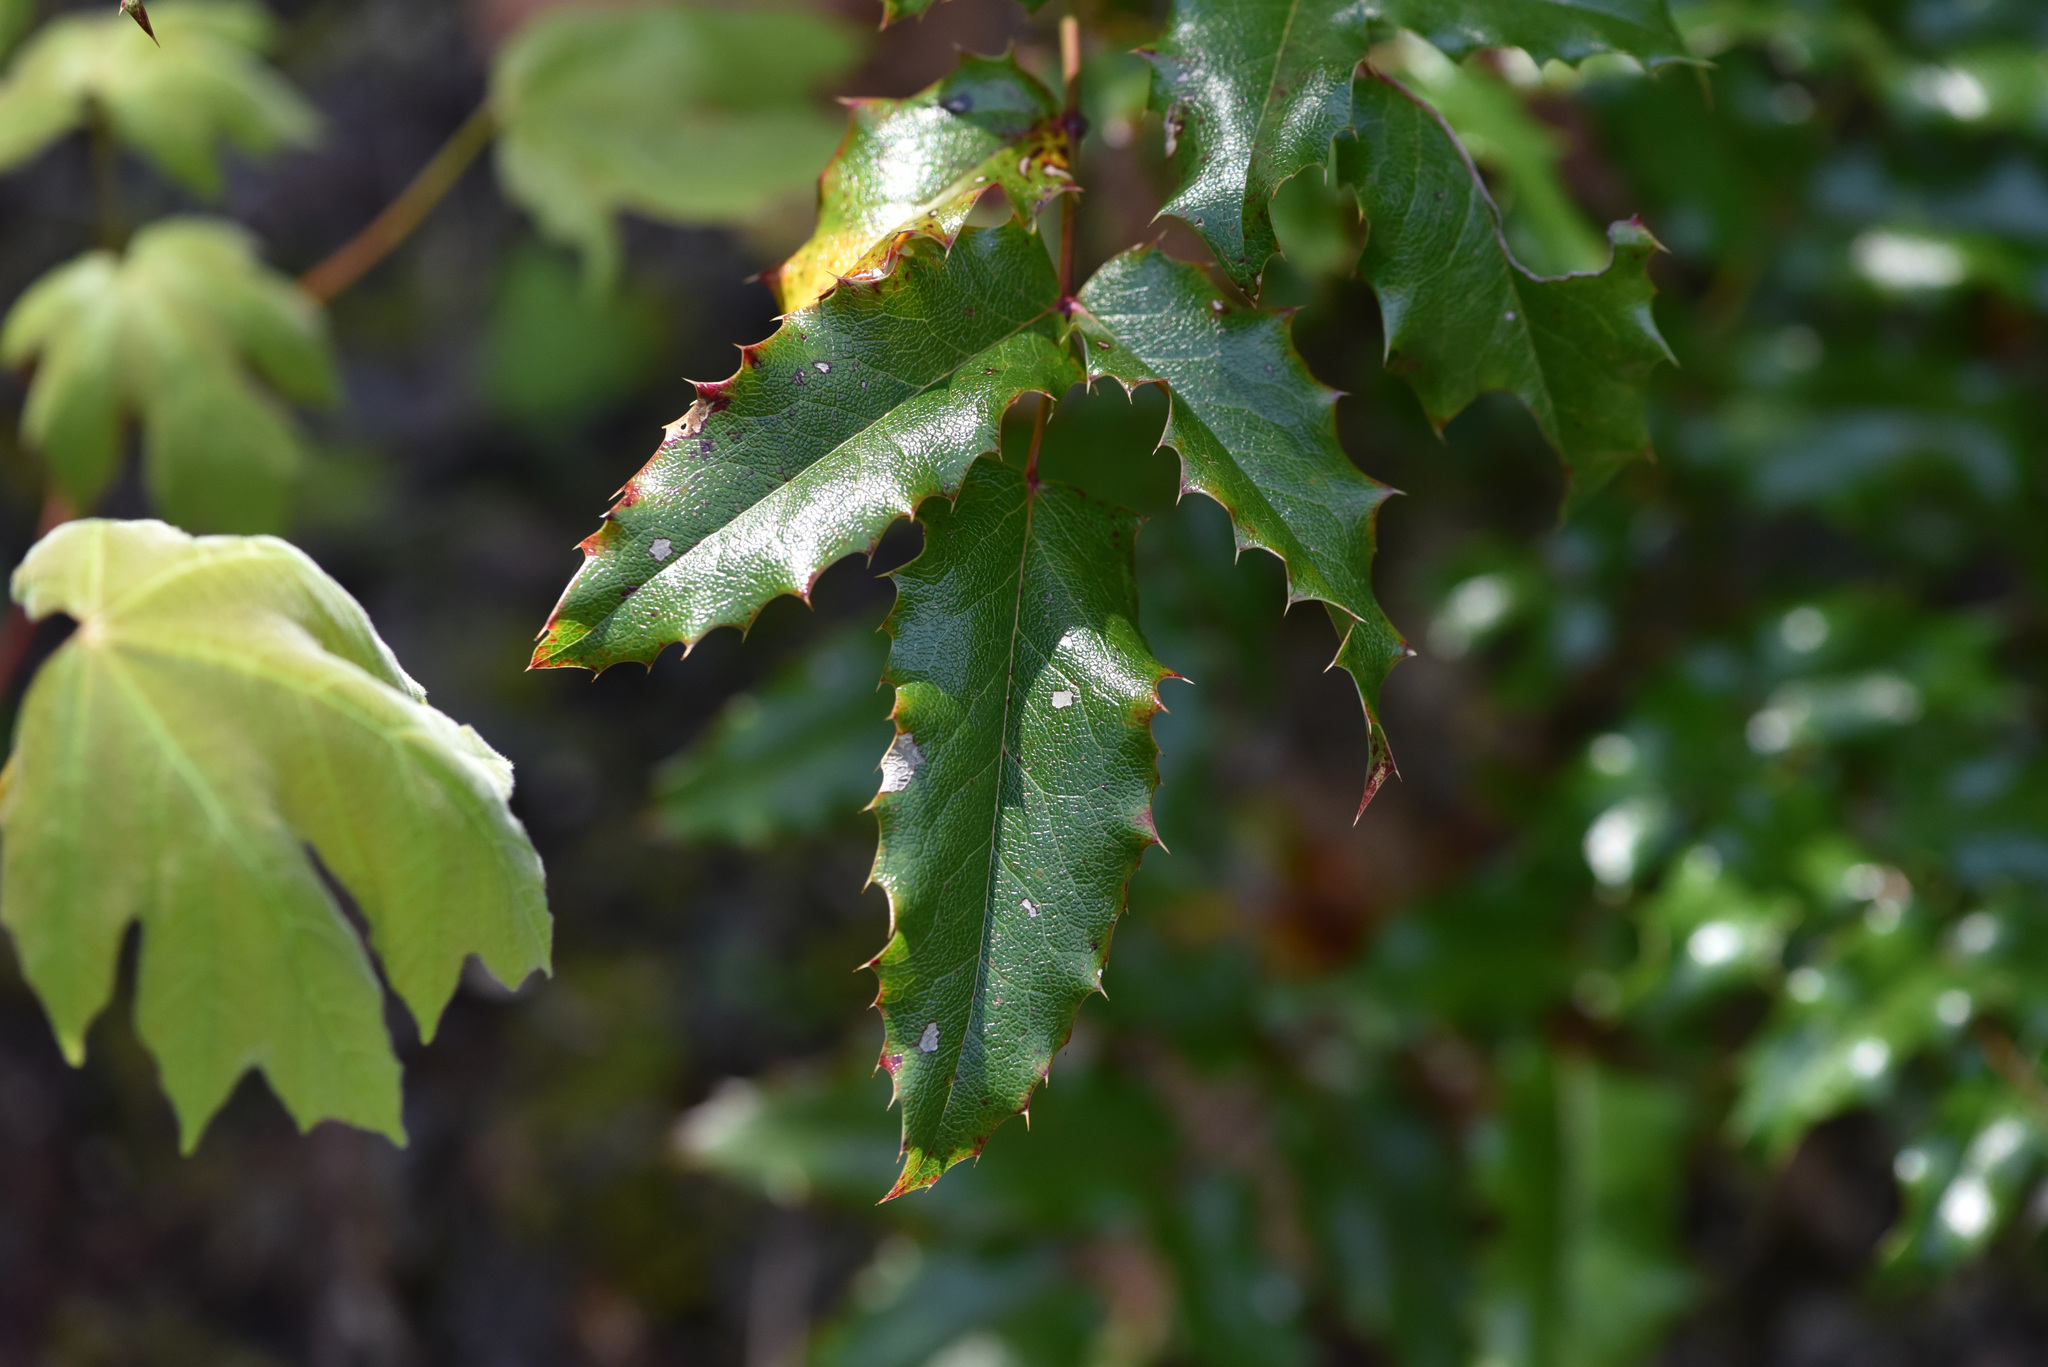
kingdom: Plantae
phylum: Tracheophyta
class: Magnoliopsida
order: Ranunculales
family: Berberidaceae
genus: Mahonia
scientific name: Mahonia aquifolium
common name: Oregon-grape
